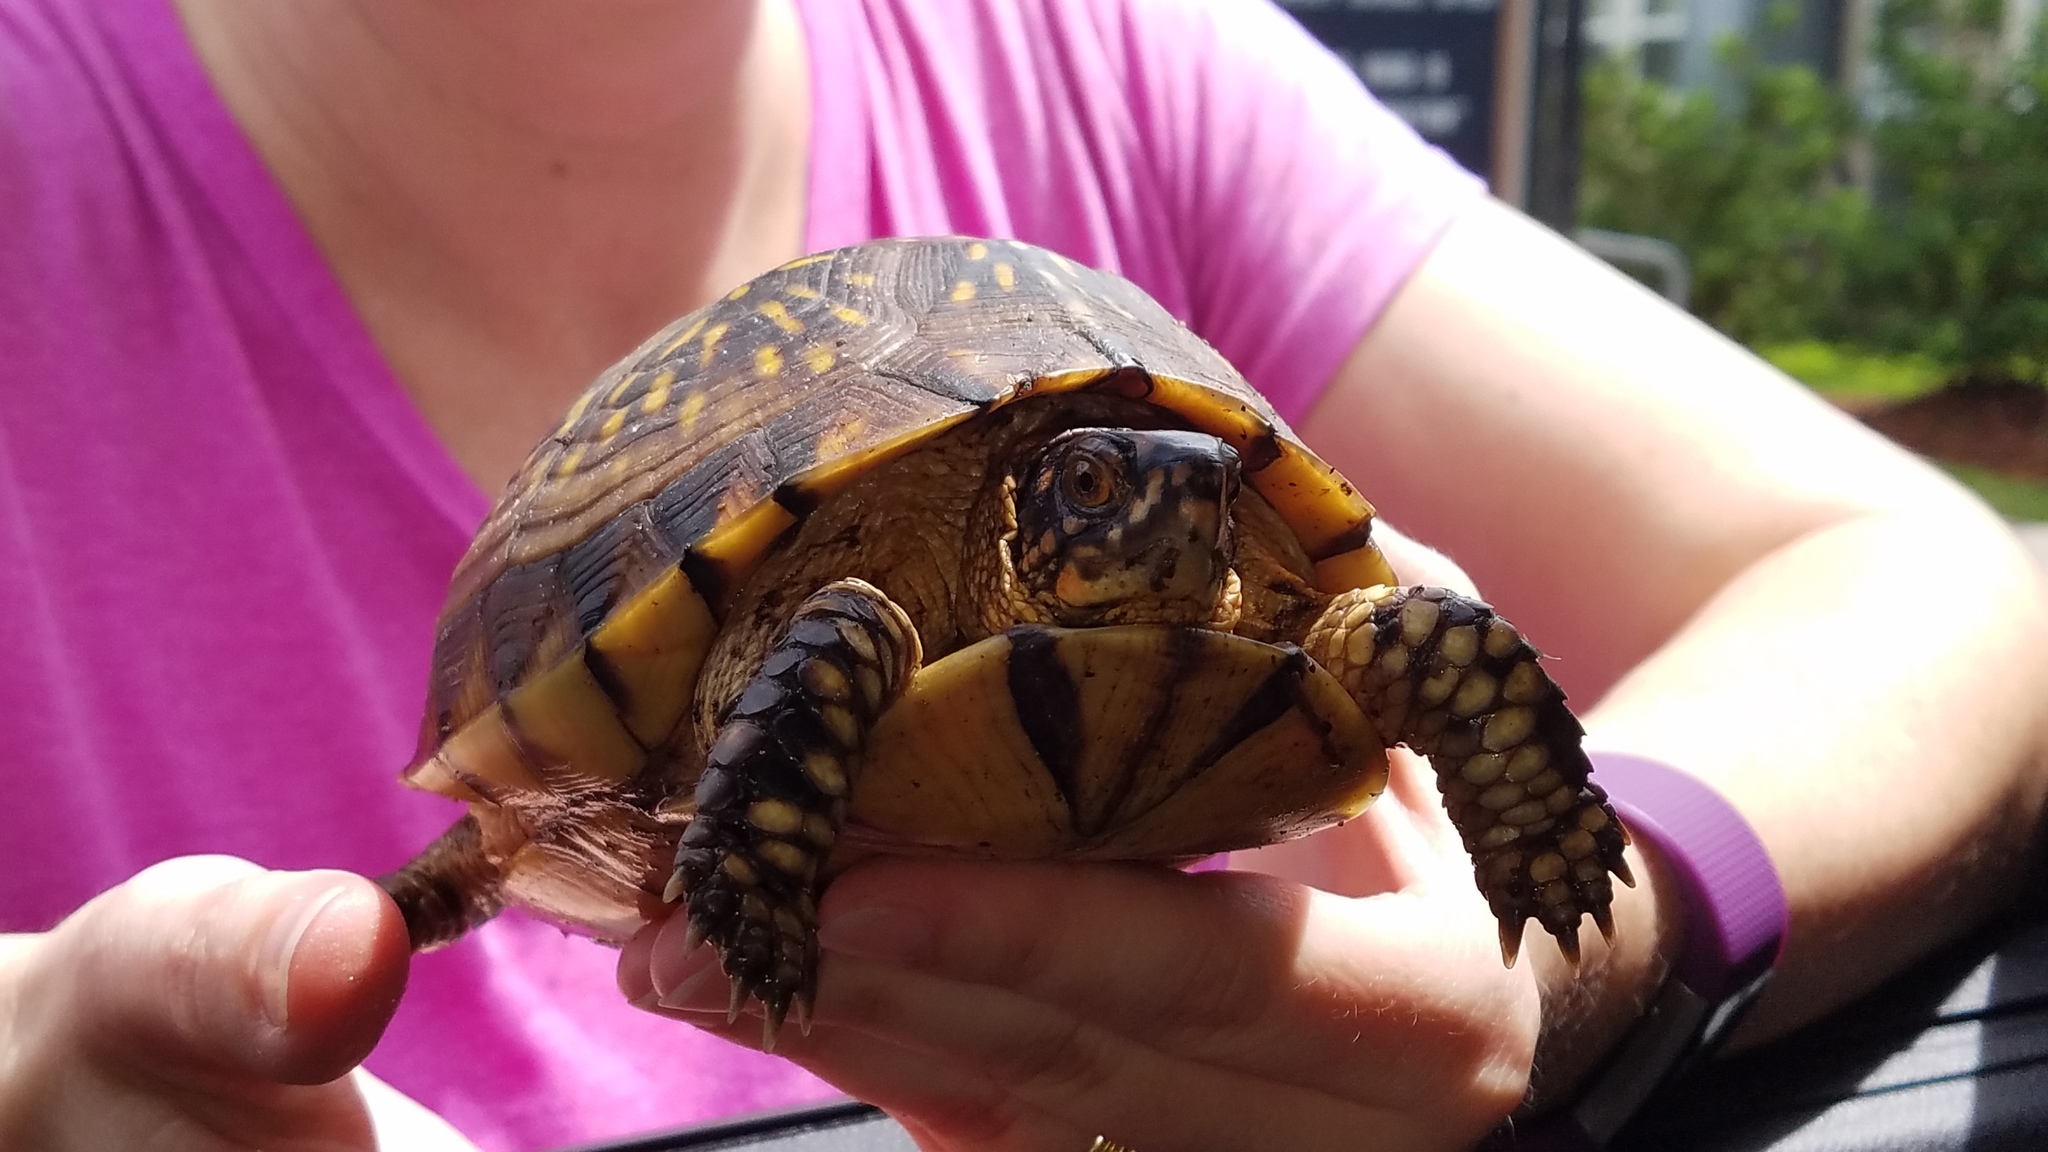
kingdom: Animalia
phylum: Chordata
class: Testudines
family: Emydidae
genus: Terrapene
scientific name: Terrapene carolina
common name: Common box turtle
